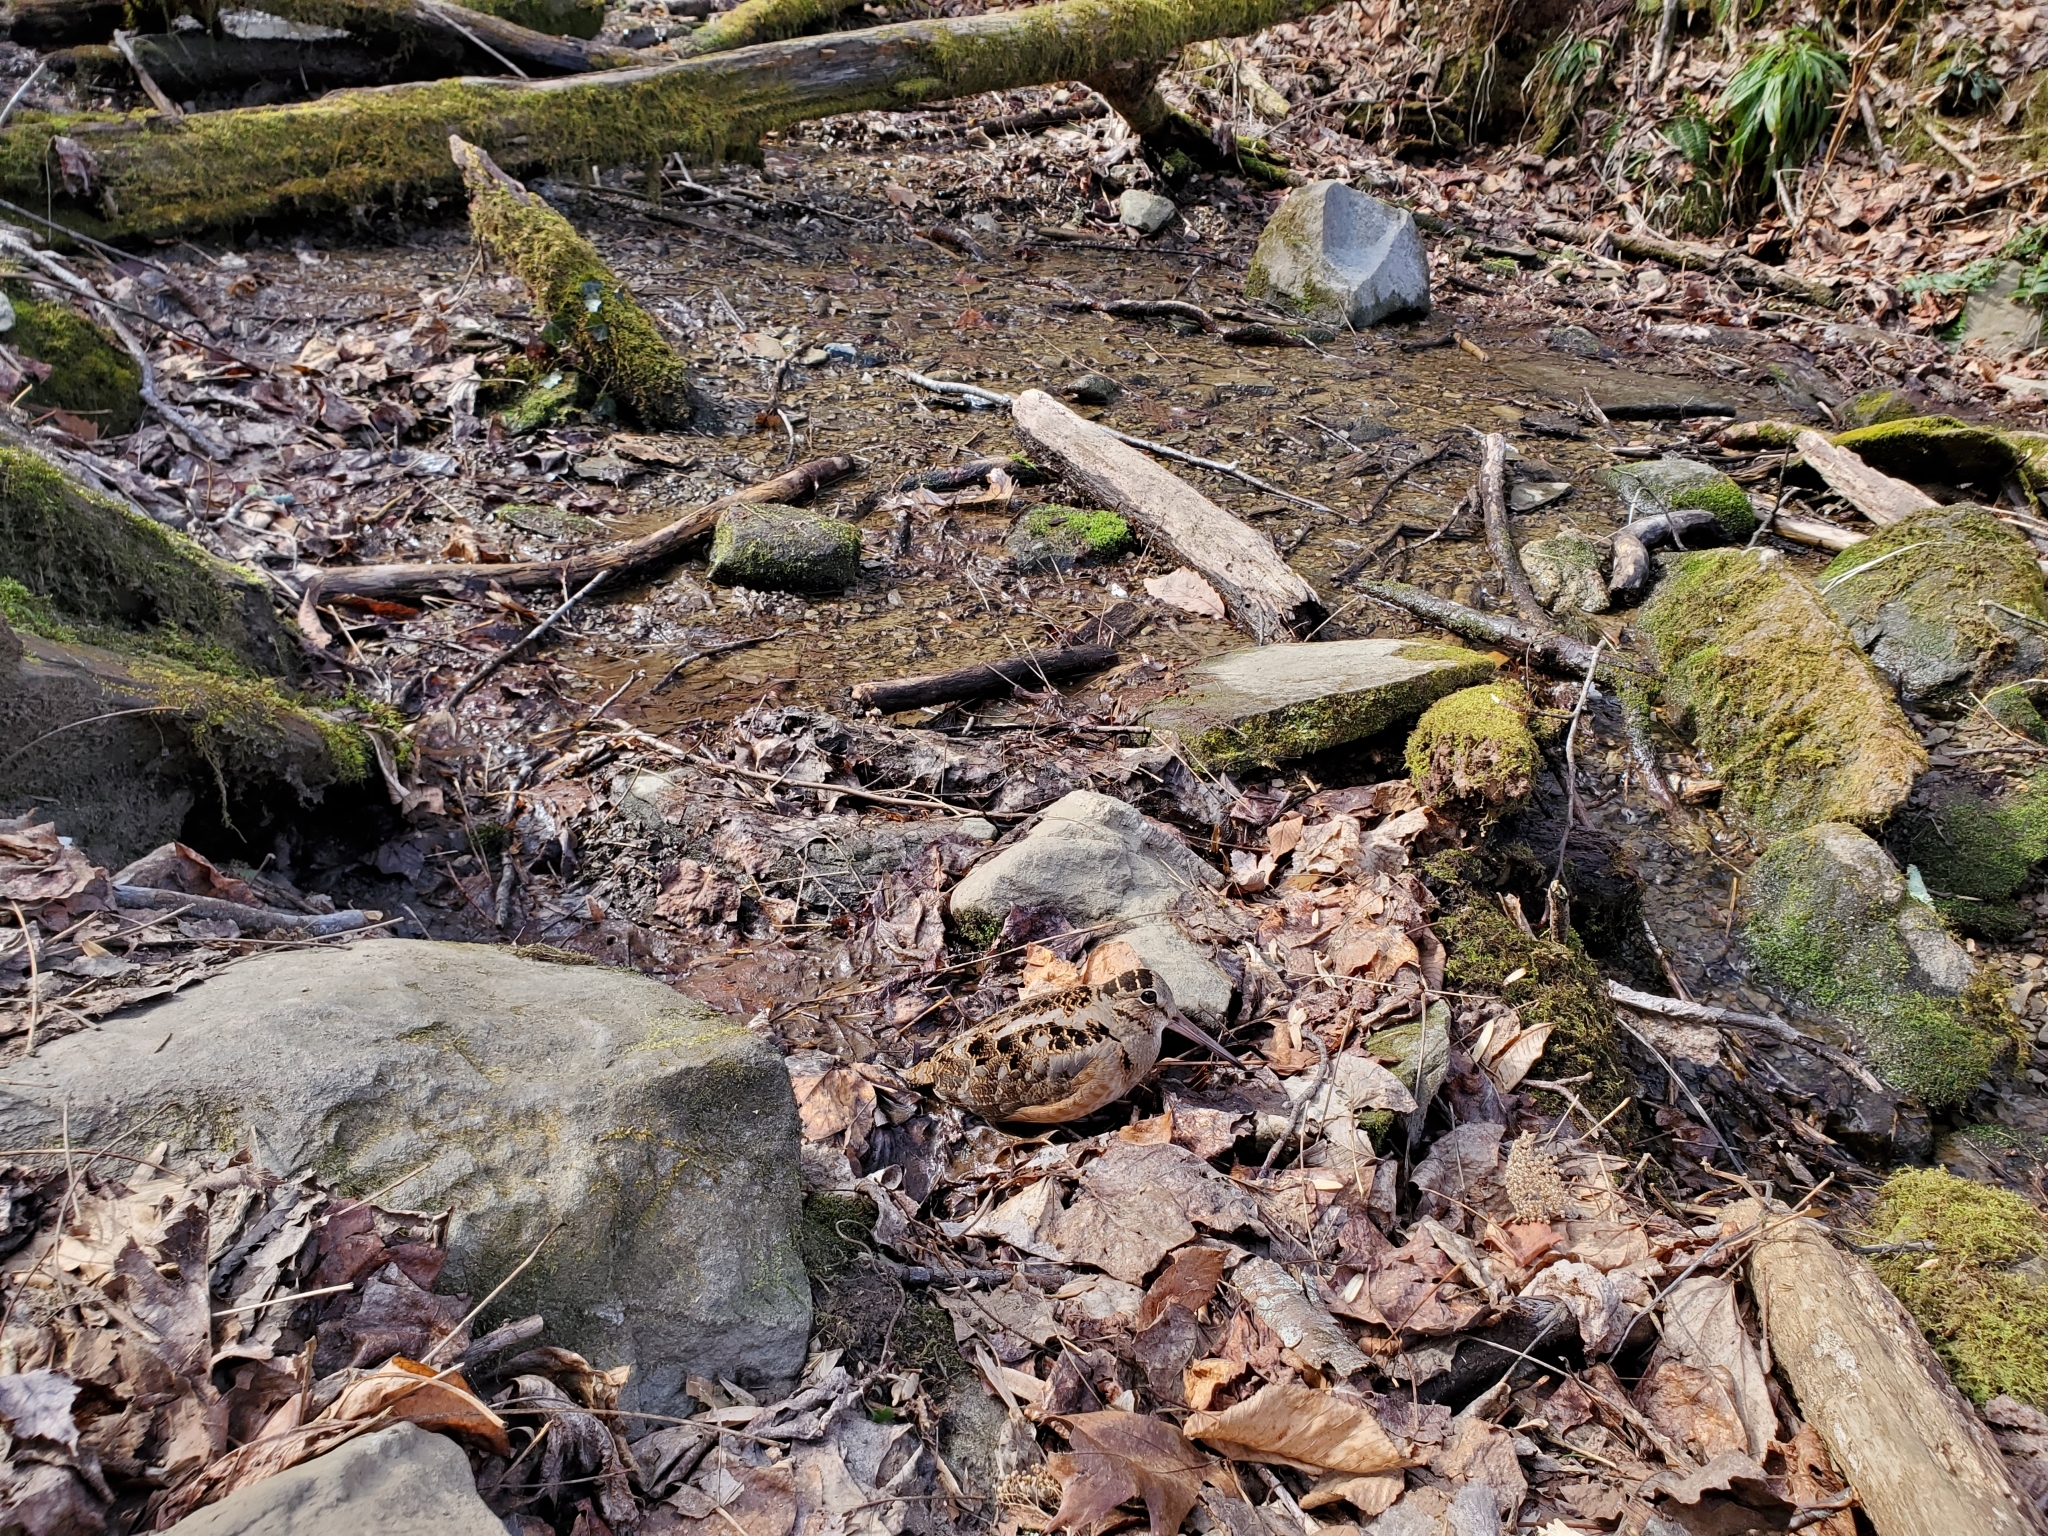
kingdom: Animalia
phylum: Chordata
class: Aves
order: Charadriiformes
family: Scolopacidae
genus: Scolopax
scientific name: Scolopax minor
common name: American woodcock
